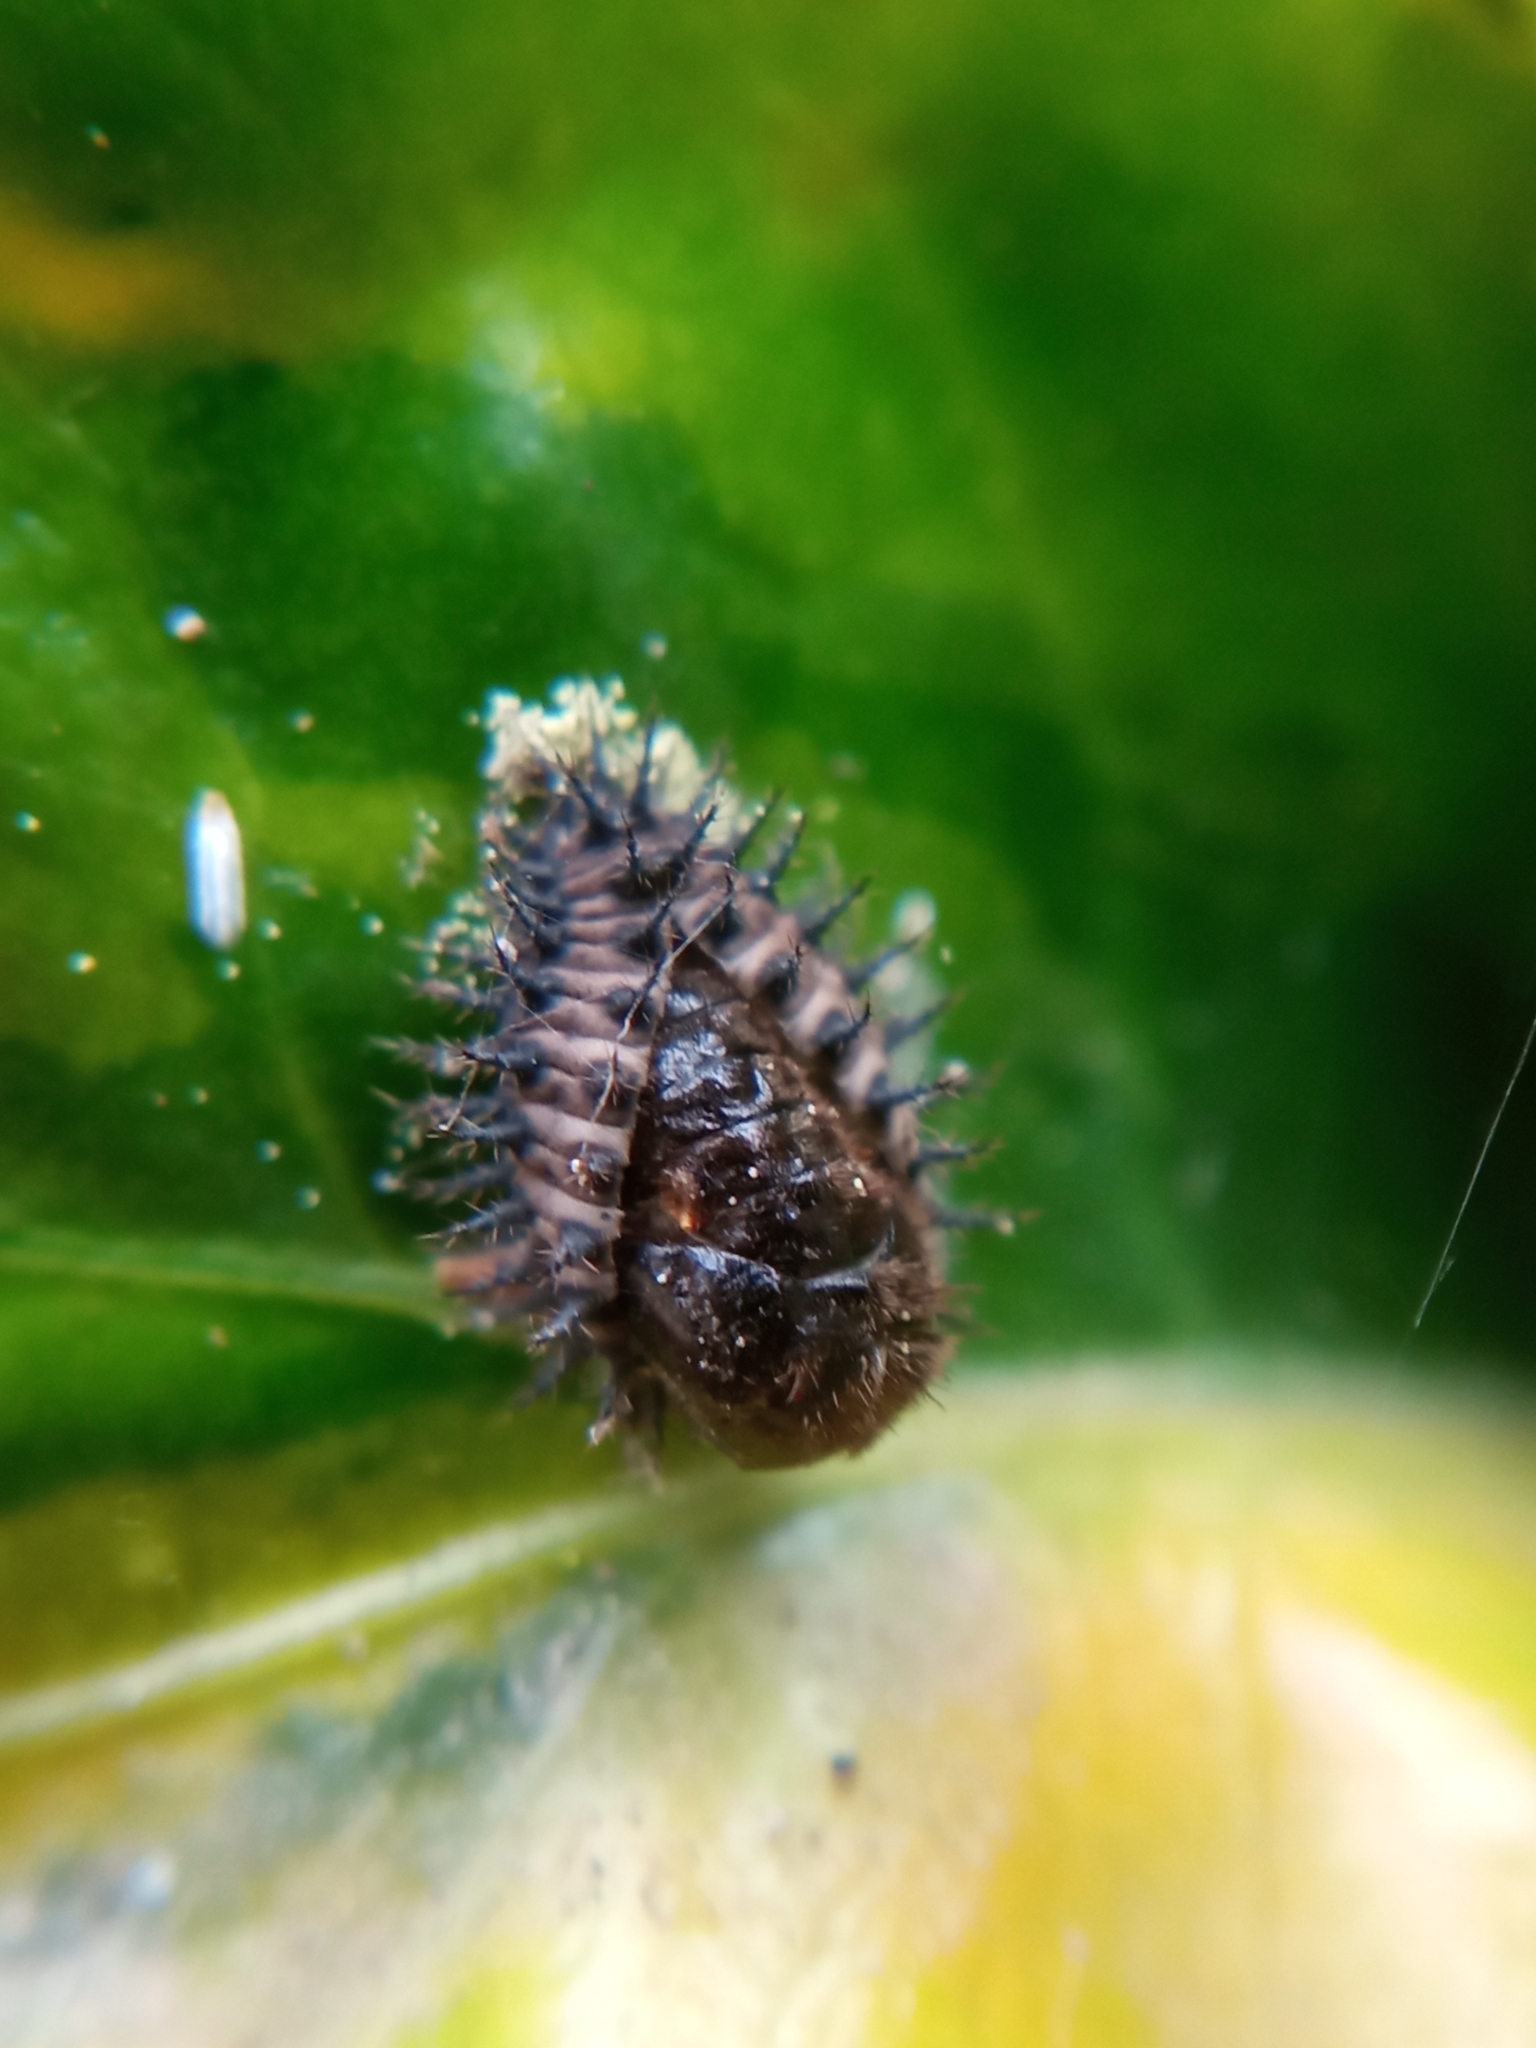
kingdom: Animalia
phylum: Arthropoda
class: Insecta
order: Coleoptera
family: Coccinellidae
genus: Chilocorus
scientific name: Chilocorus renipustulatus
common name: Kidney-spot ladybird
